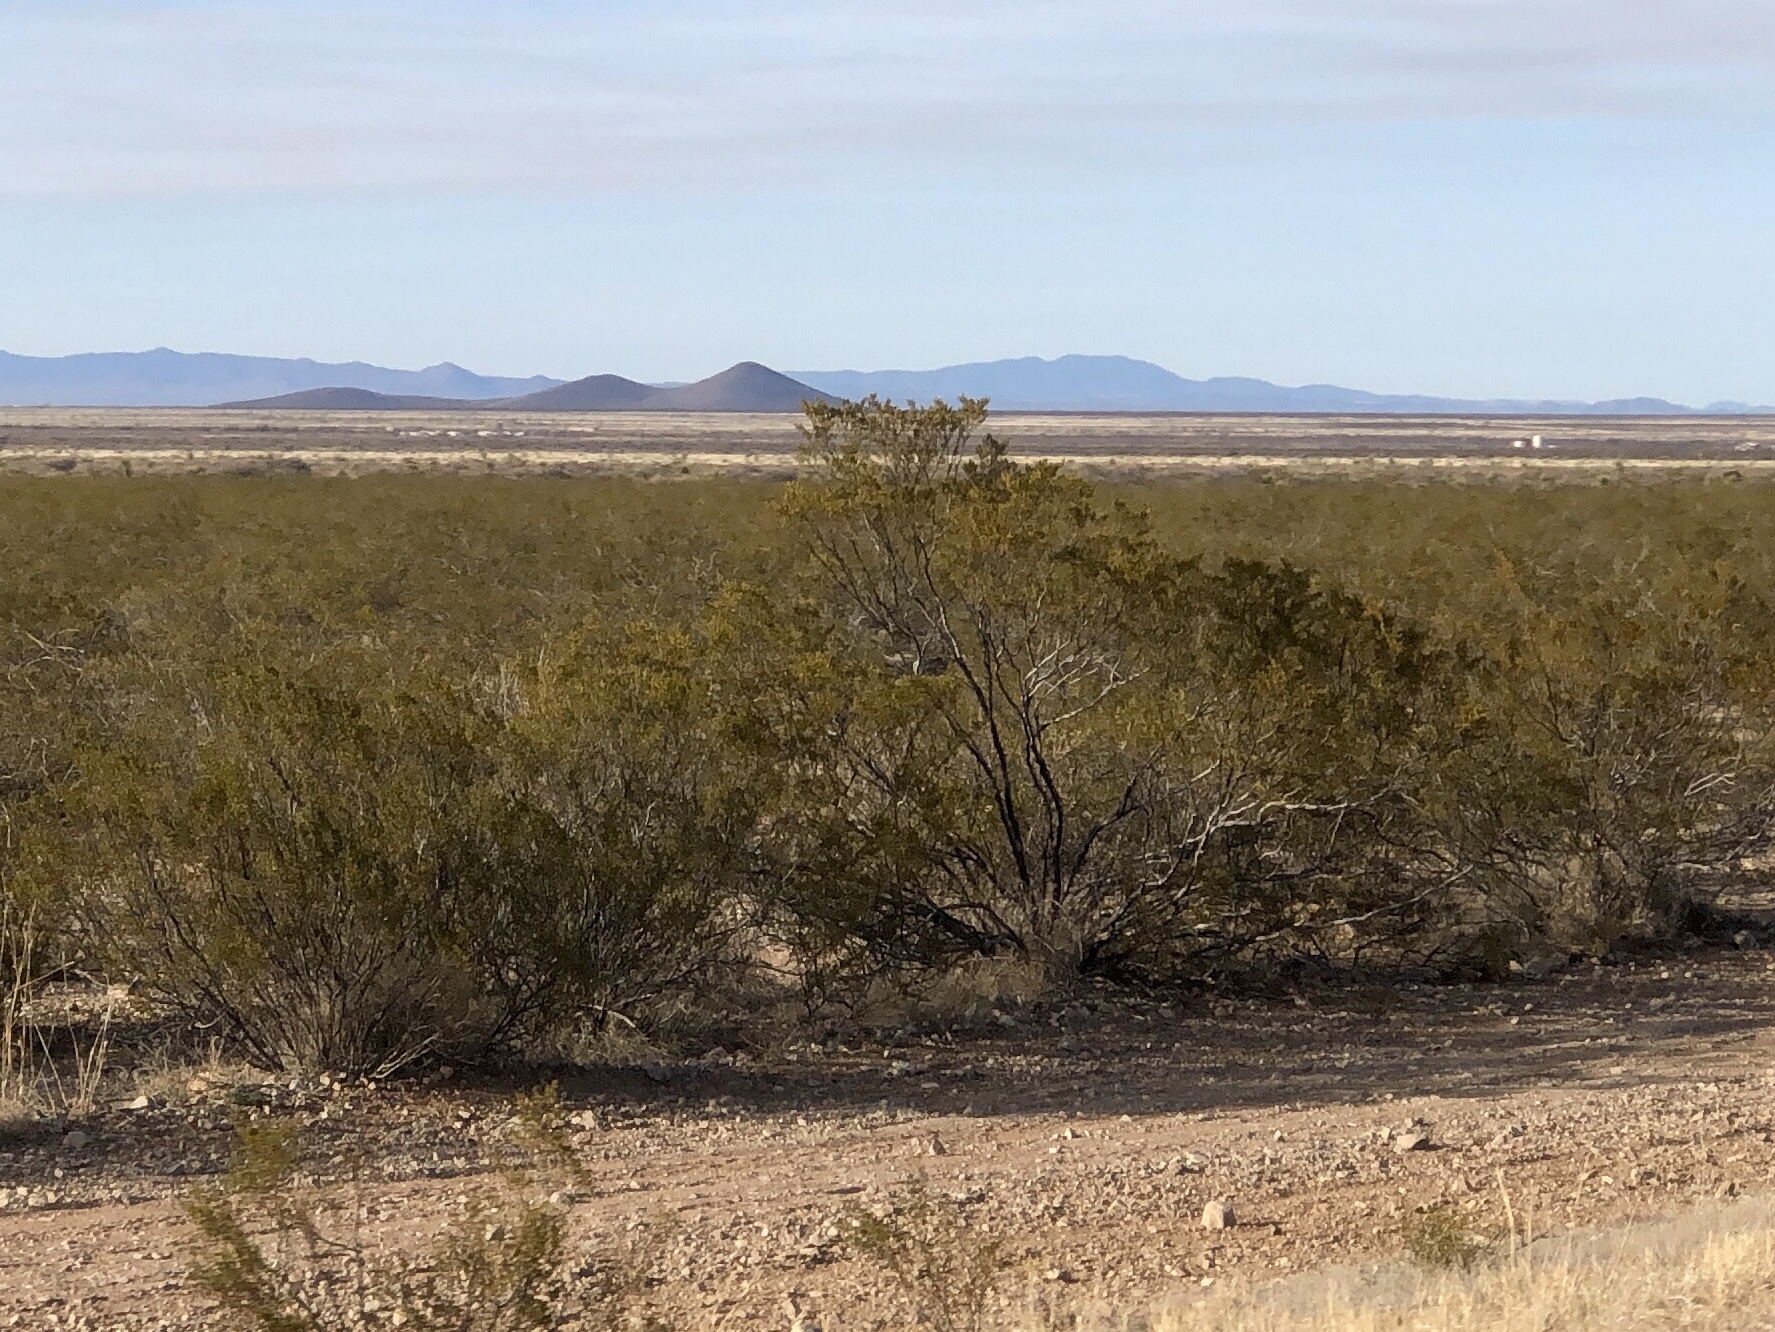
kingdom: Plantae
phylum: Tracheophyta
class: Magnoliopsida
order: Zygophyllales
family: Zygophyllaceae
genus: Larrea
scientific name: Larrea tridentata
